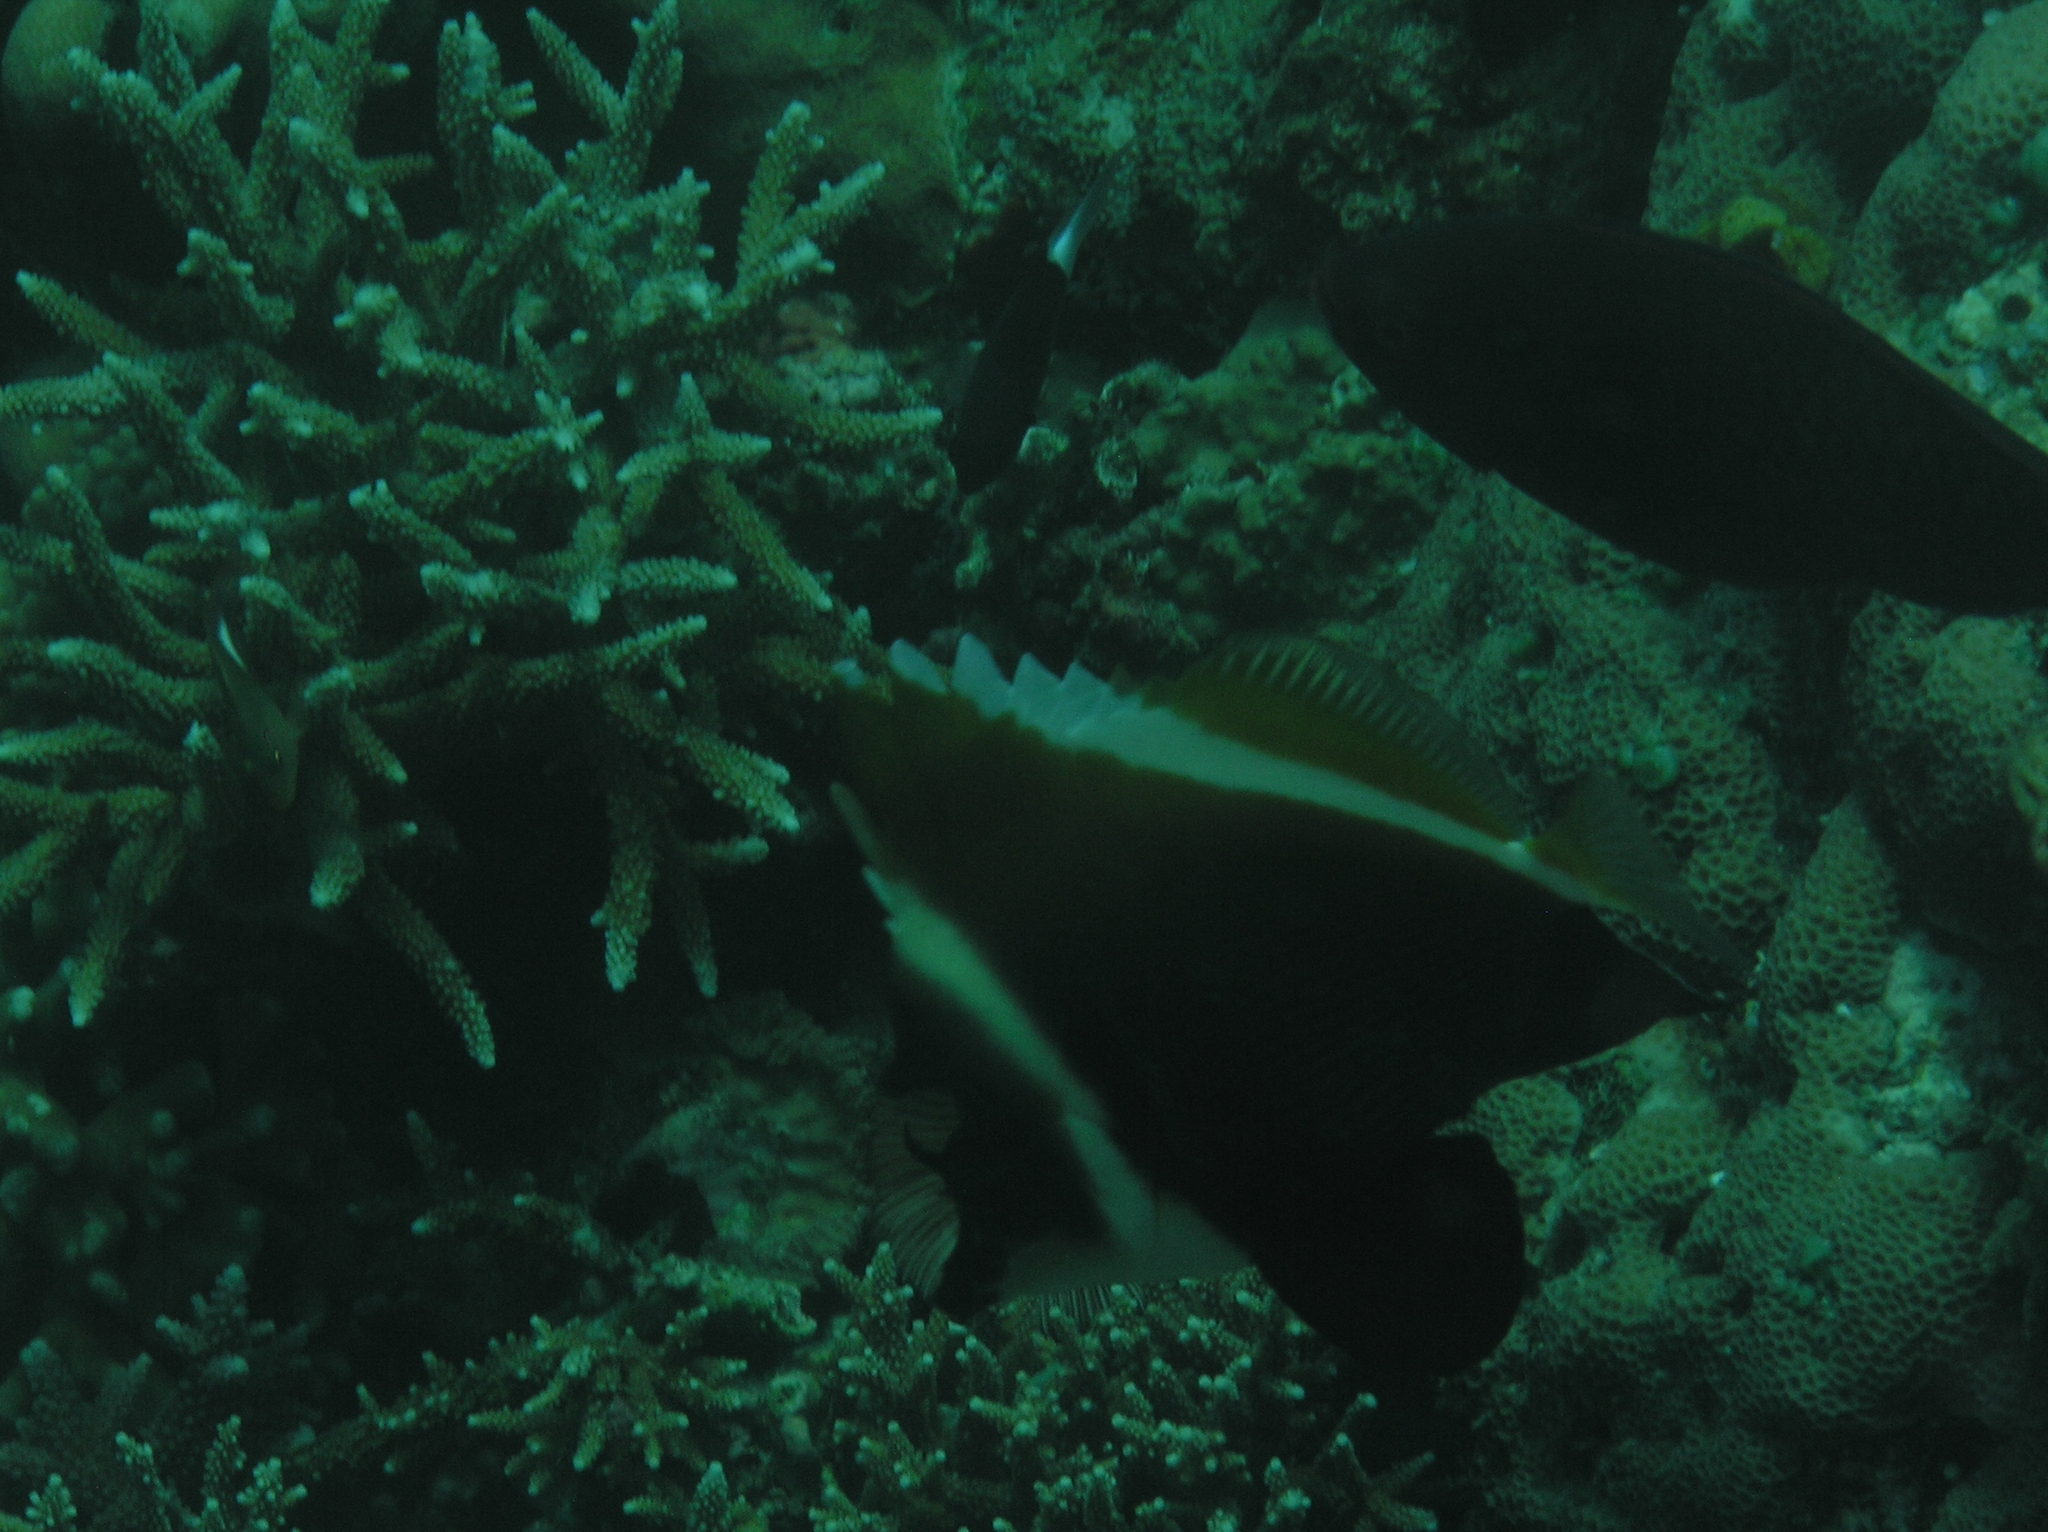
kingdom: Animalia
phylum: Chordata
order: Perciformes
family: Chaetodontidae
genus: Heniochus
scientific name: Heniochus varius
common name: Horned bannerfish
